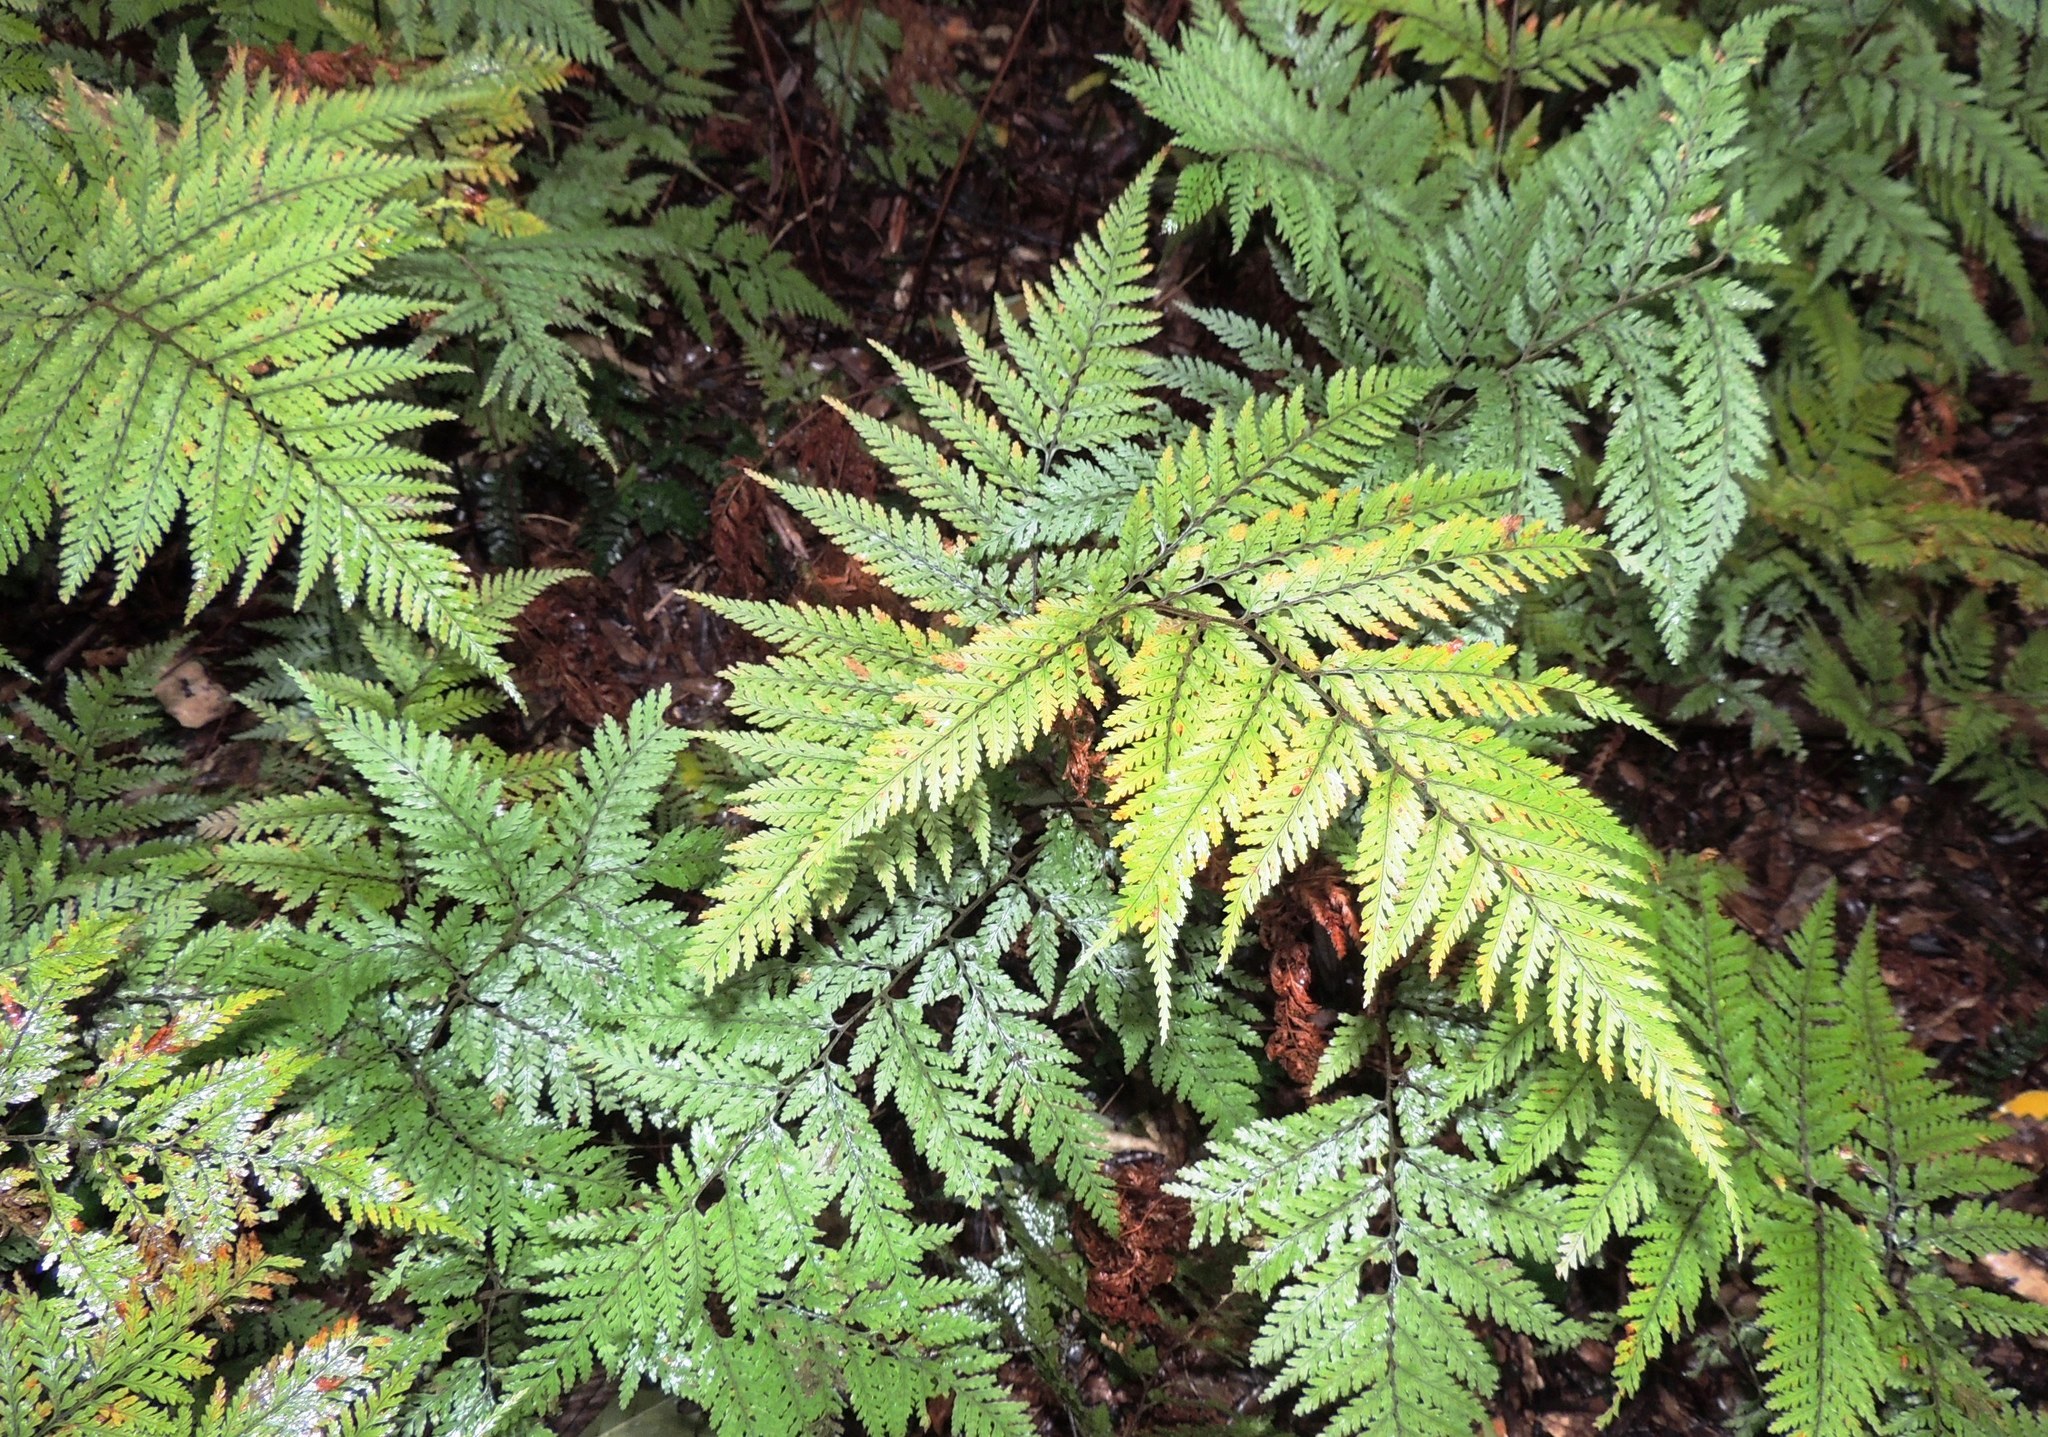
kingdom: Plantae
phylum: Tracheophyta
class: Polypodiopsida
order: Polypodiales
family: Dryopteridaceae
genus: Parapolystichum
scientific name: Parapolystichum microsorum
